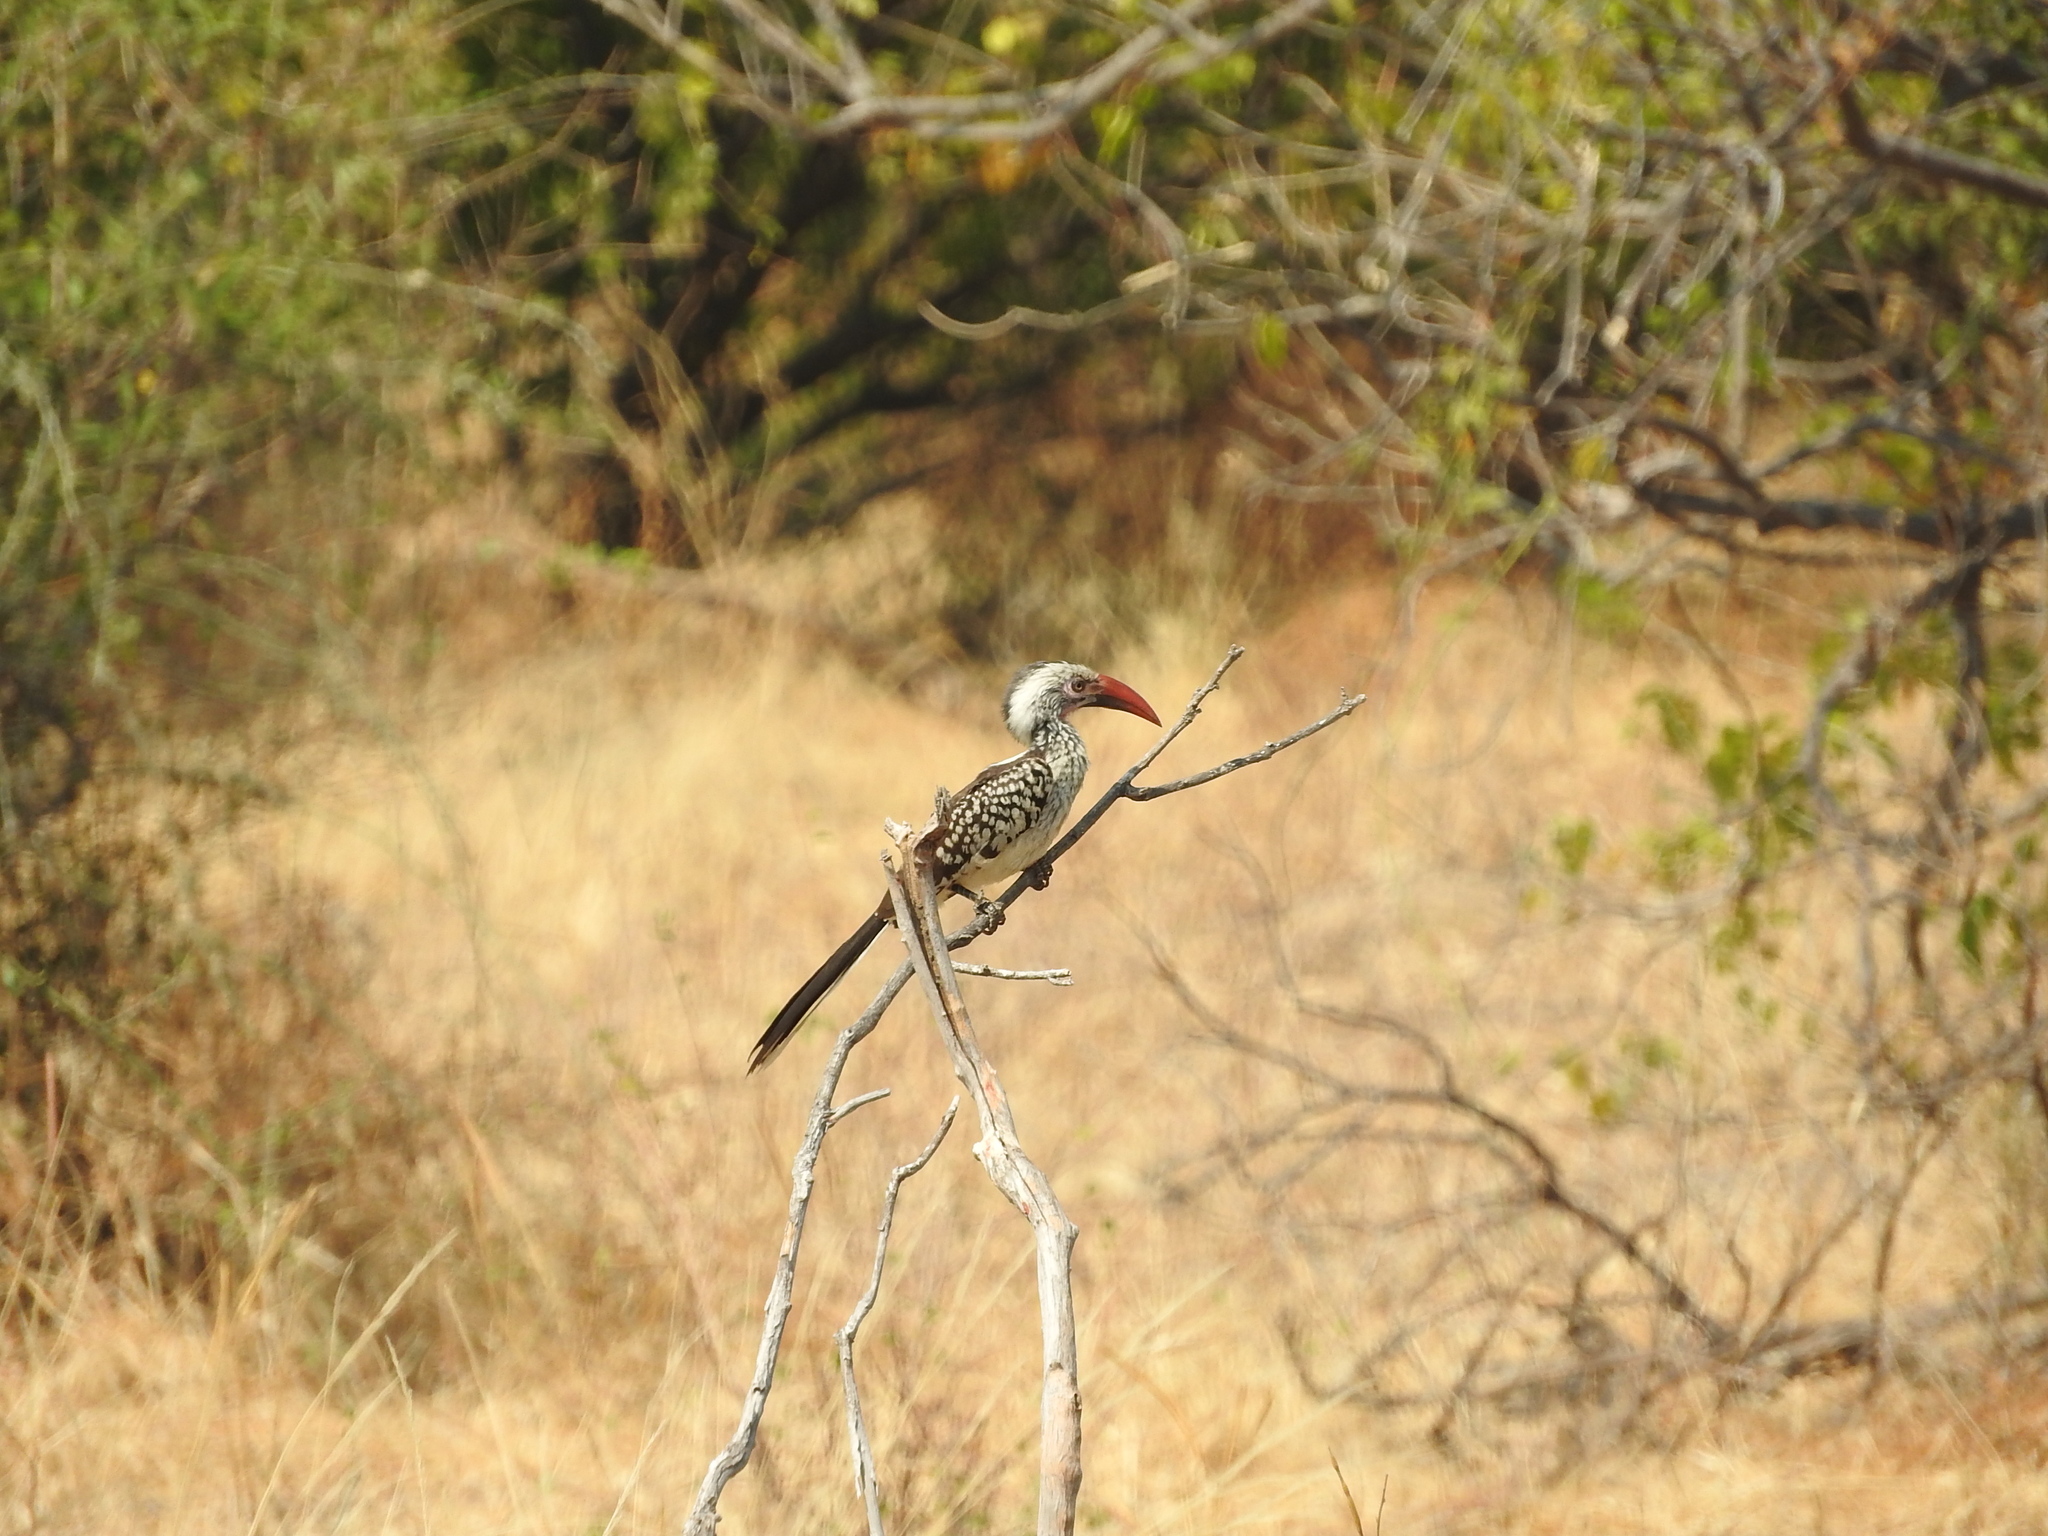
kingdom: Animalia
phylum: Chordata
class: Aves
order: Bucerotiformes
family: Bucerotidae
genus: Tockus
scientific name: Tockus rufirostris
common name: Southern red-billed hornbill
